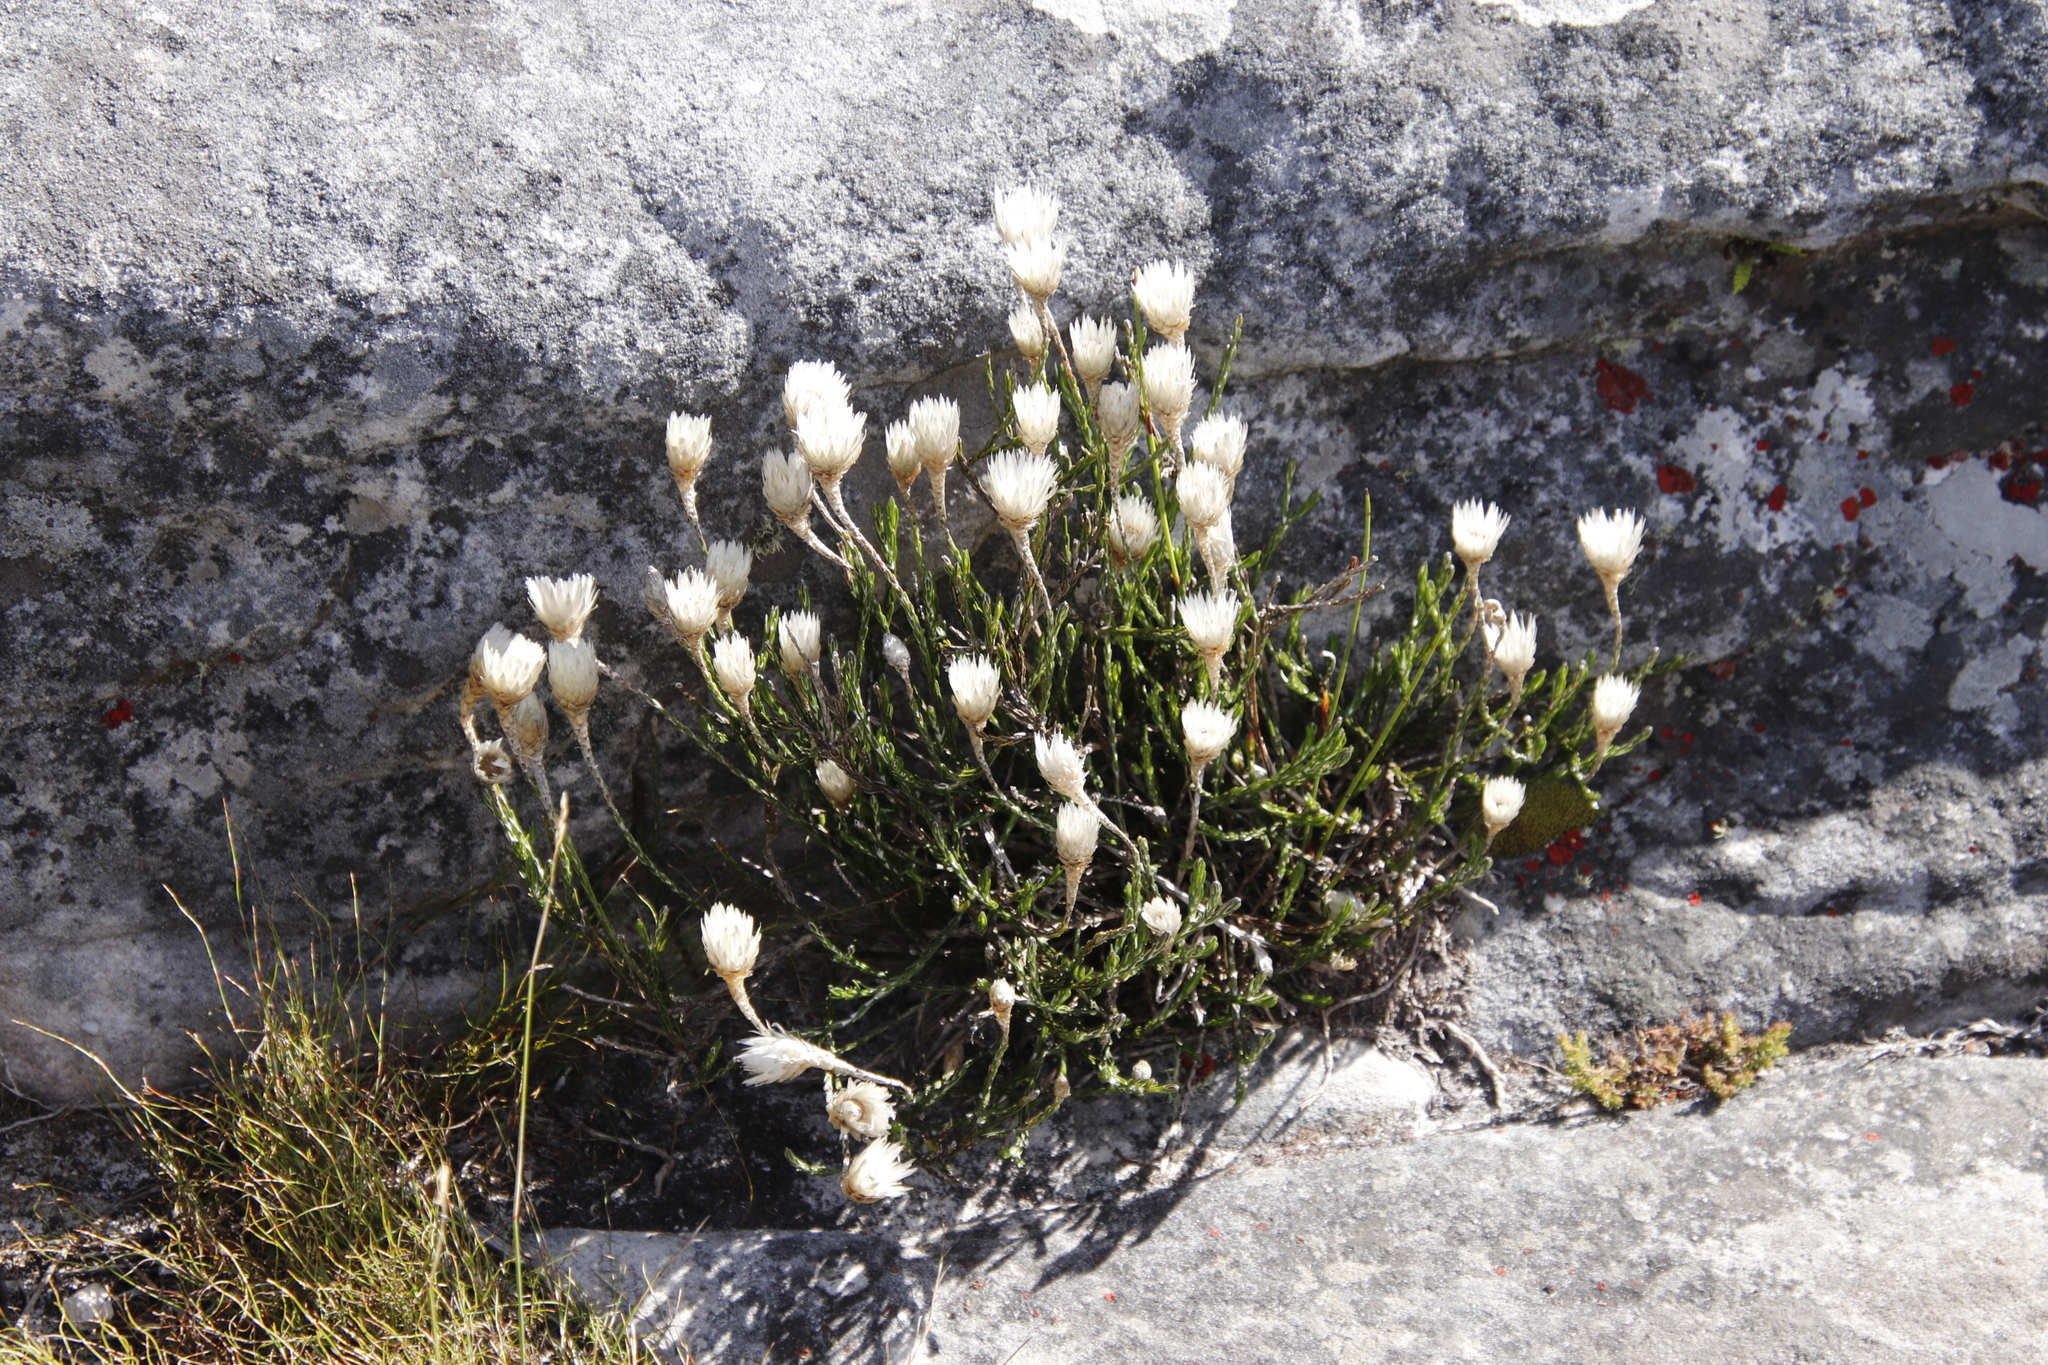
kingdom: Plantae
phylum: Tracheophyta
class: Magnoliopsida
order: Asterales
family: Asteraceae
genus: Edmondia
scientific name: Edmondia pinifolia
